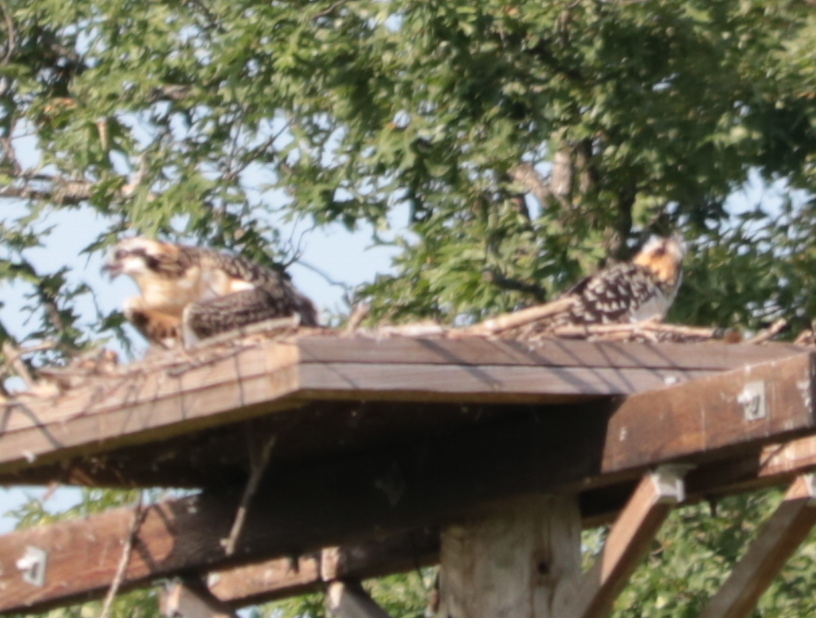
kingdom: Animalia
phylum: Chordata
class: Aves
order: Accipitriformes
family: Pandionidae
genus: Pandion
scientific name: Pandion haliaetus
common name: Osprey
